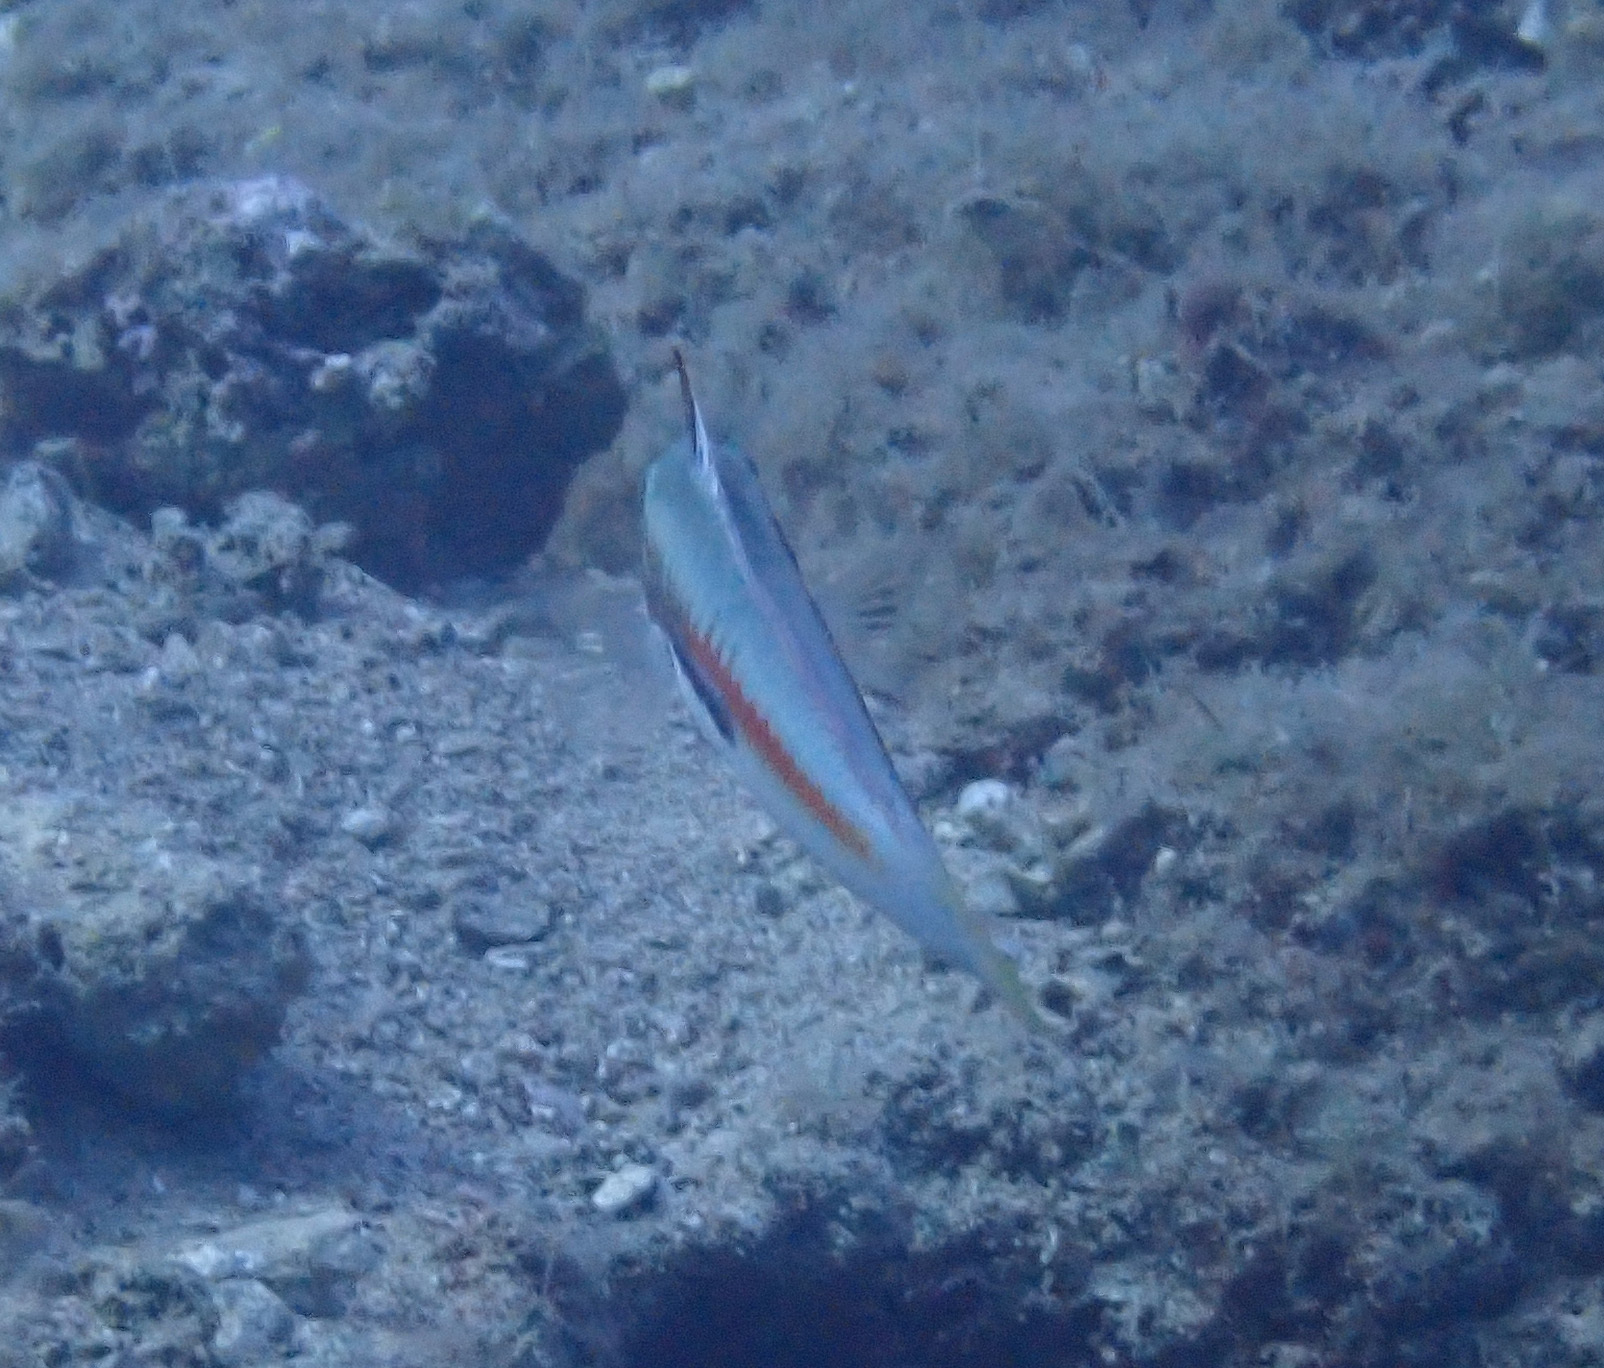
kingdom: Animalia
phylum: Chordata
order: Perciformes
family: Labridae
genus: Coris
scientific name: Coris julis
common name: Rainbow wrasse
